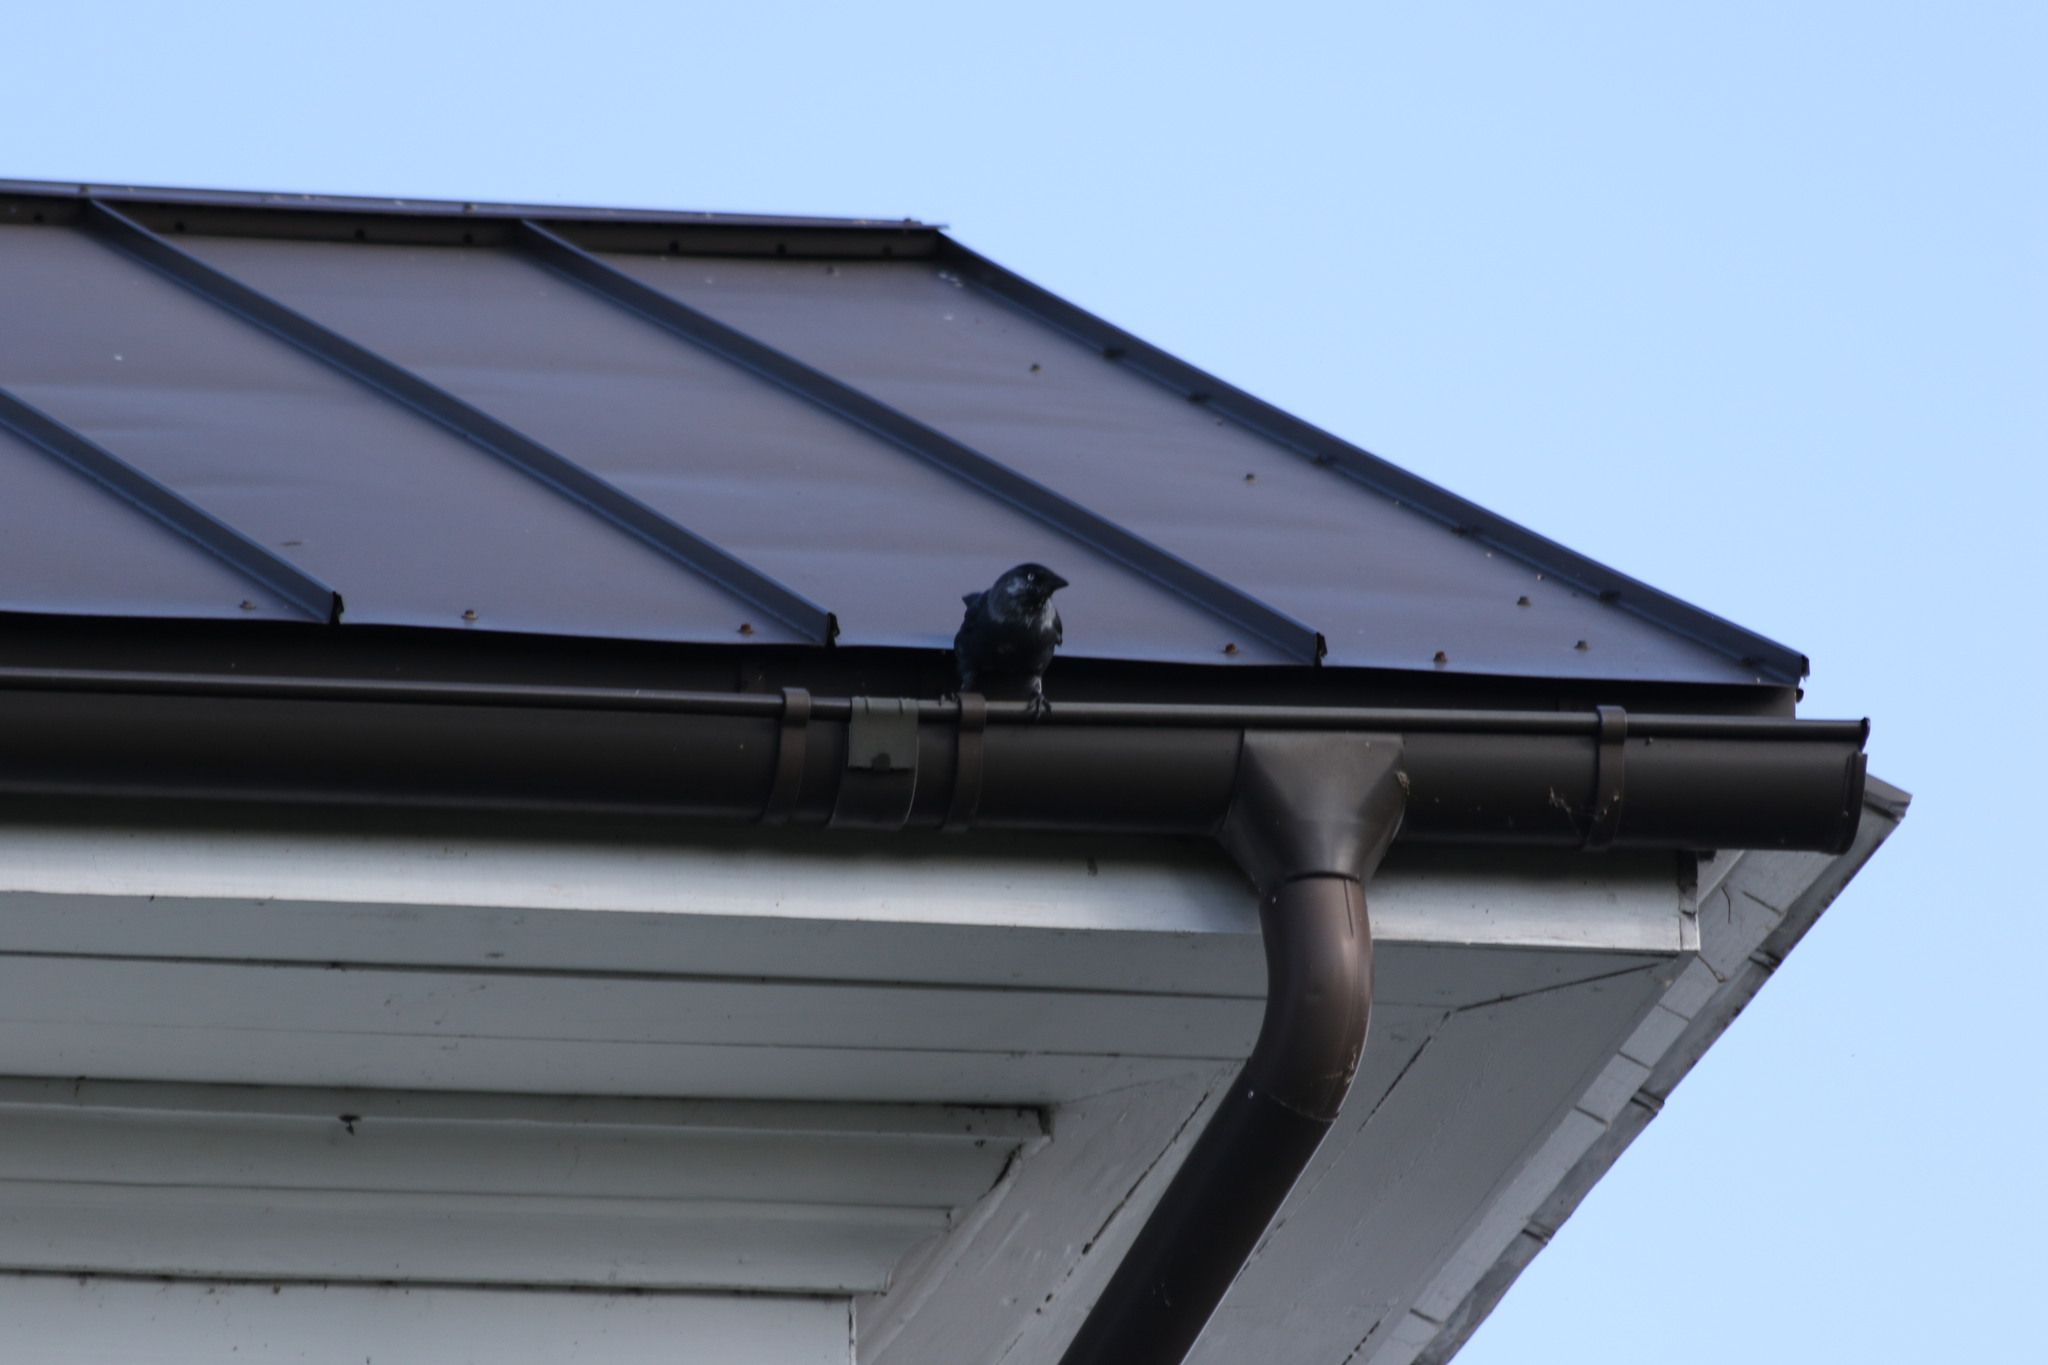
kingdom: Animalia
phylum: Chordata
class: Aves
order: Passeriformes
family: Corvidae
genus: Coloeus
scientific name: Coloeus monedula
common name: Western jackdaw
